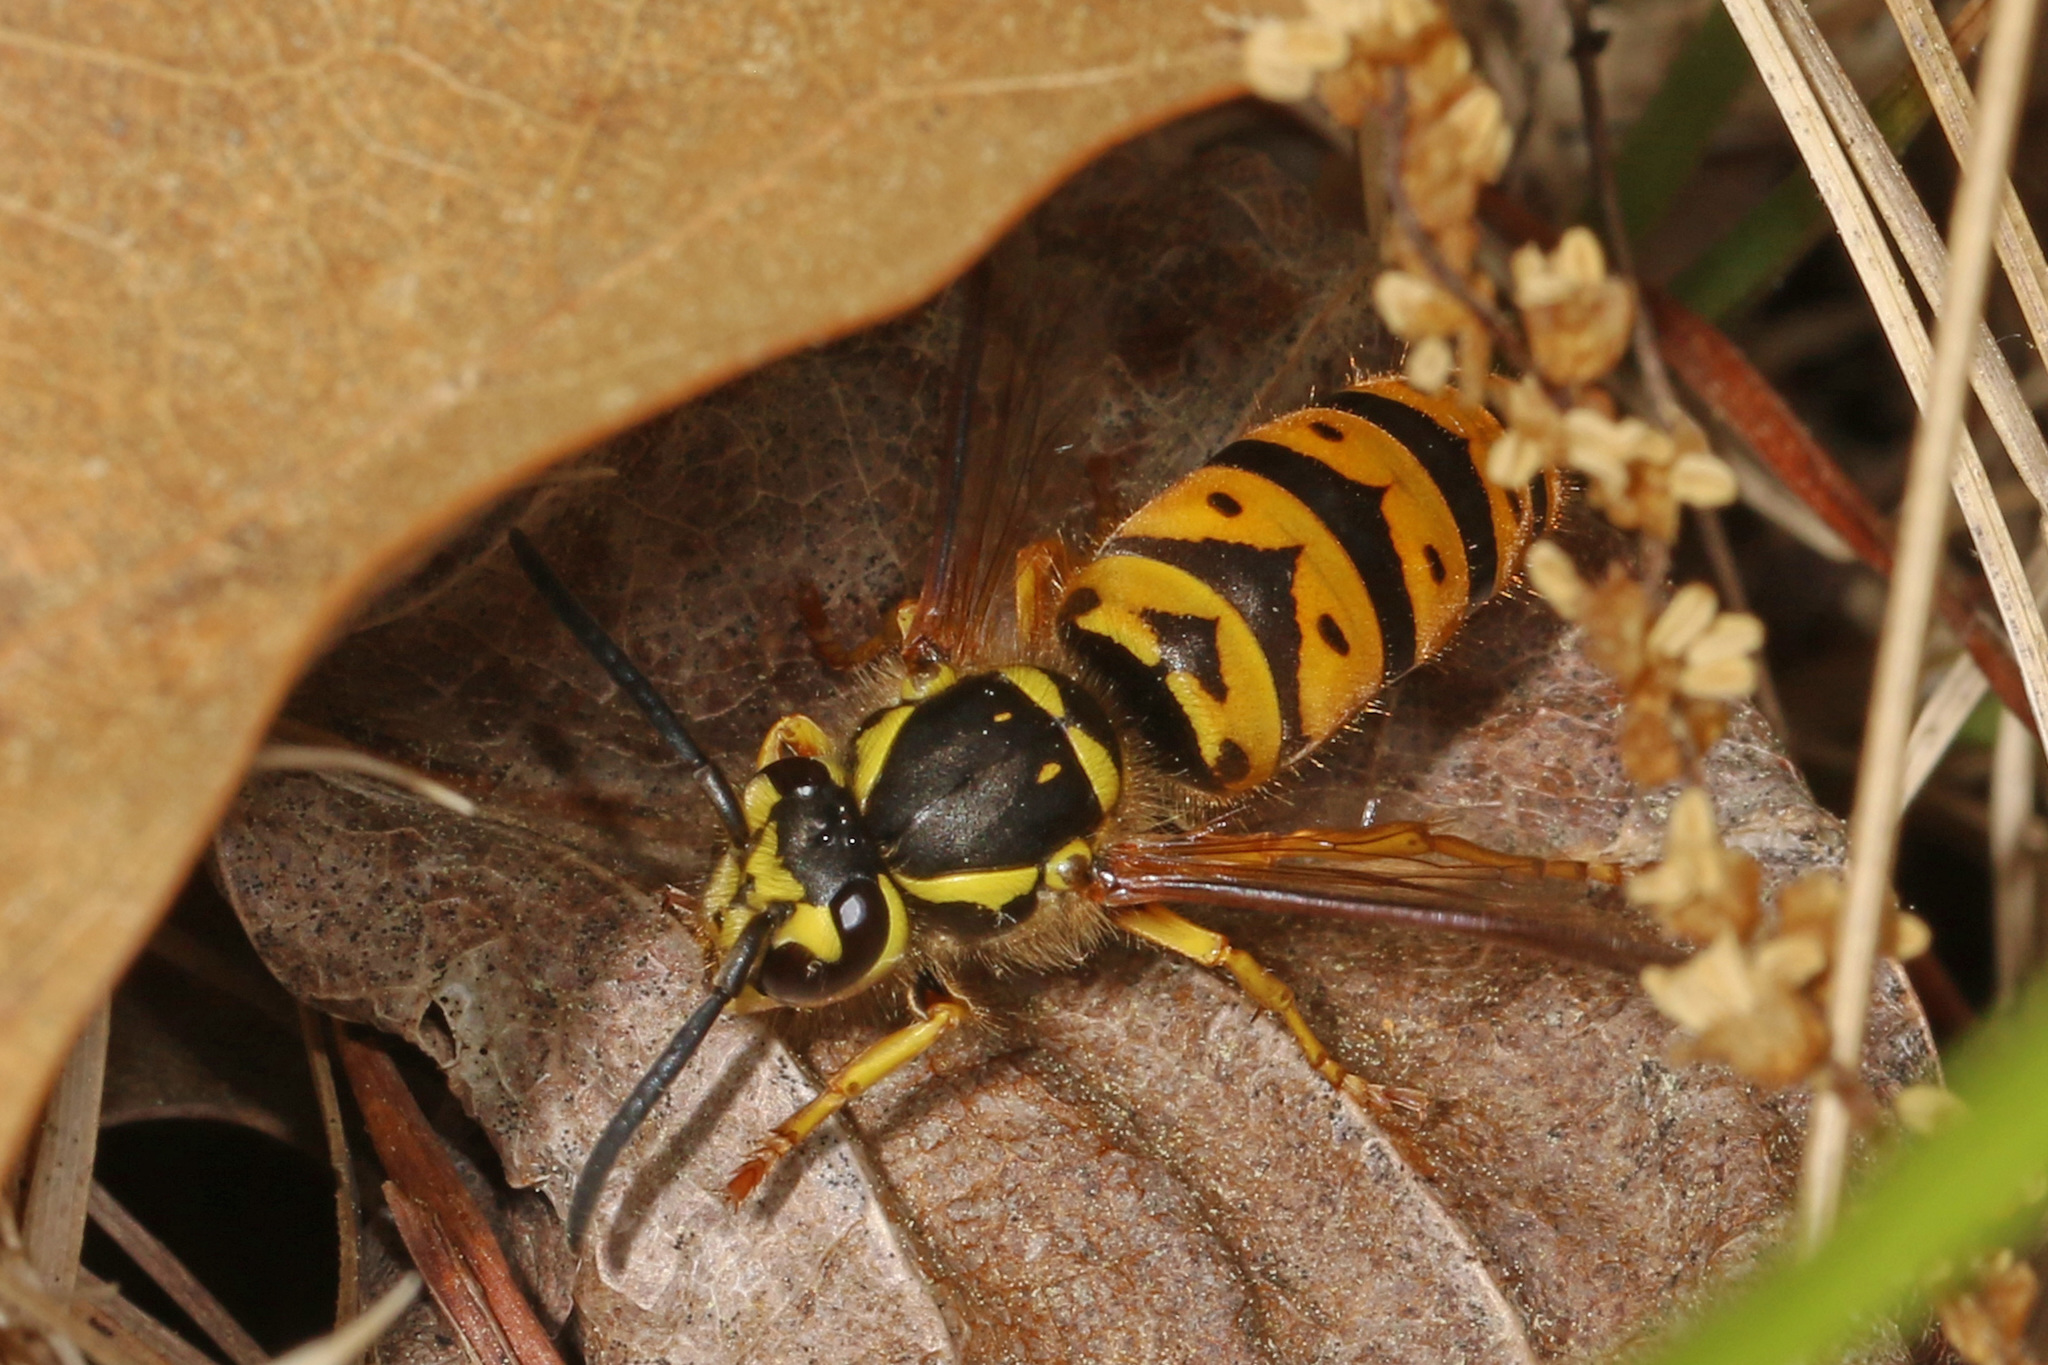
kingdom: Animalia
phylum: Arthropoda
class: Insecta
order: Hymenoptera
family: Vespidae
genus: Vespula
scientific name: Vespula maculifrons
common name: Eastern yellowjacket
